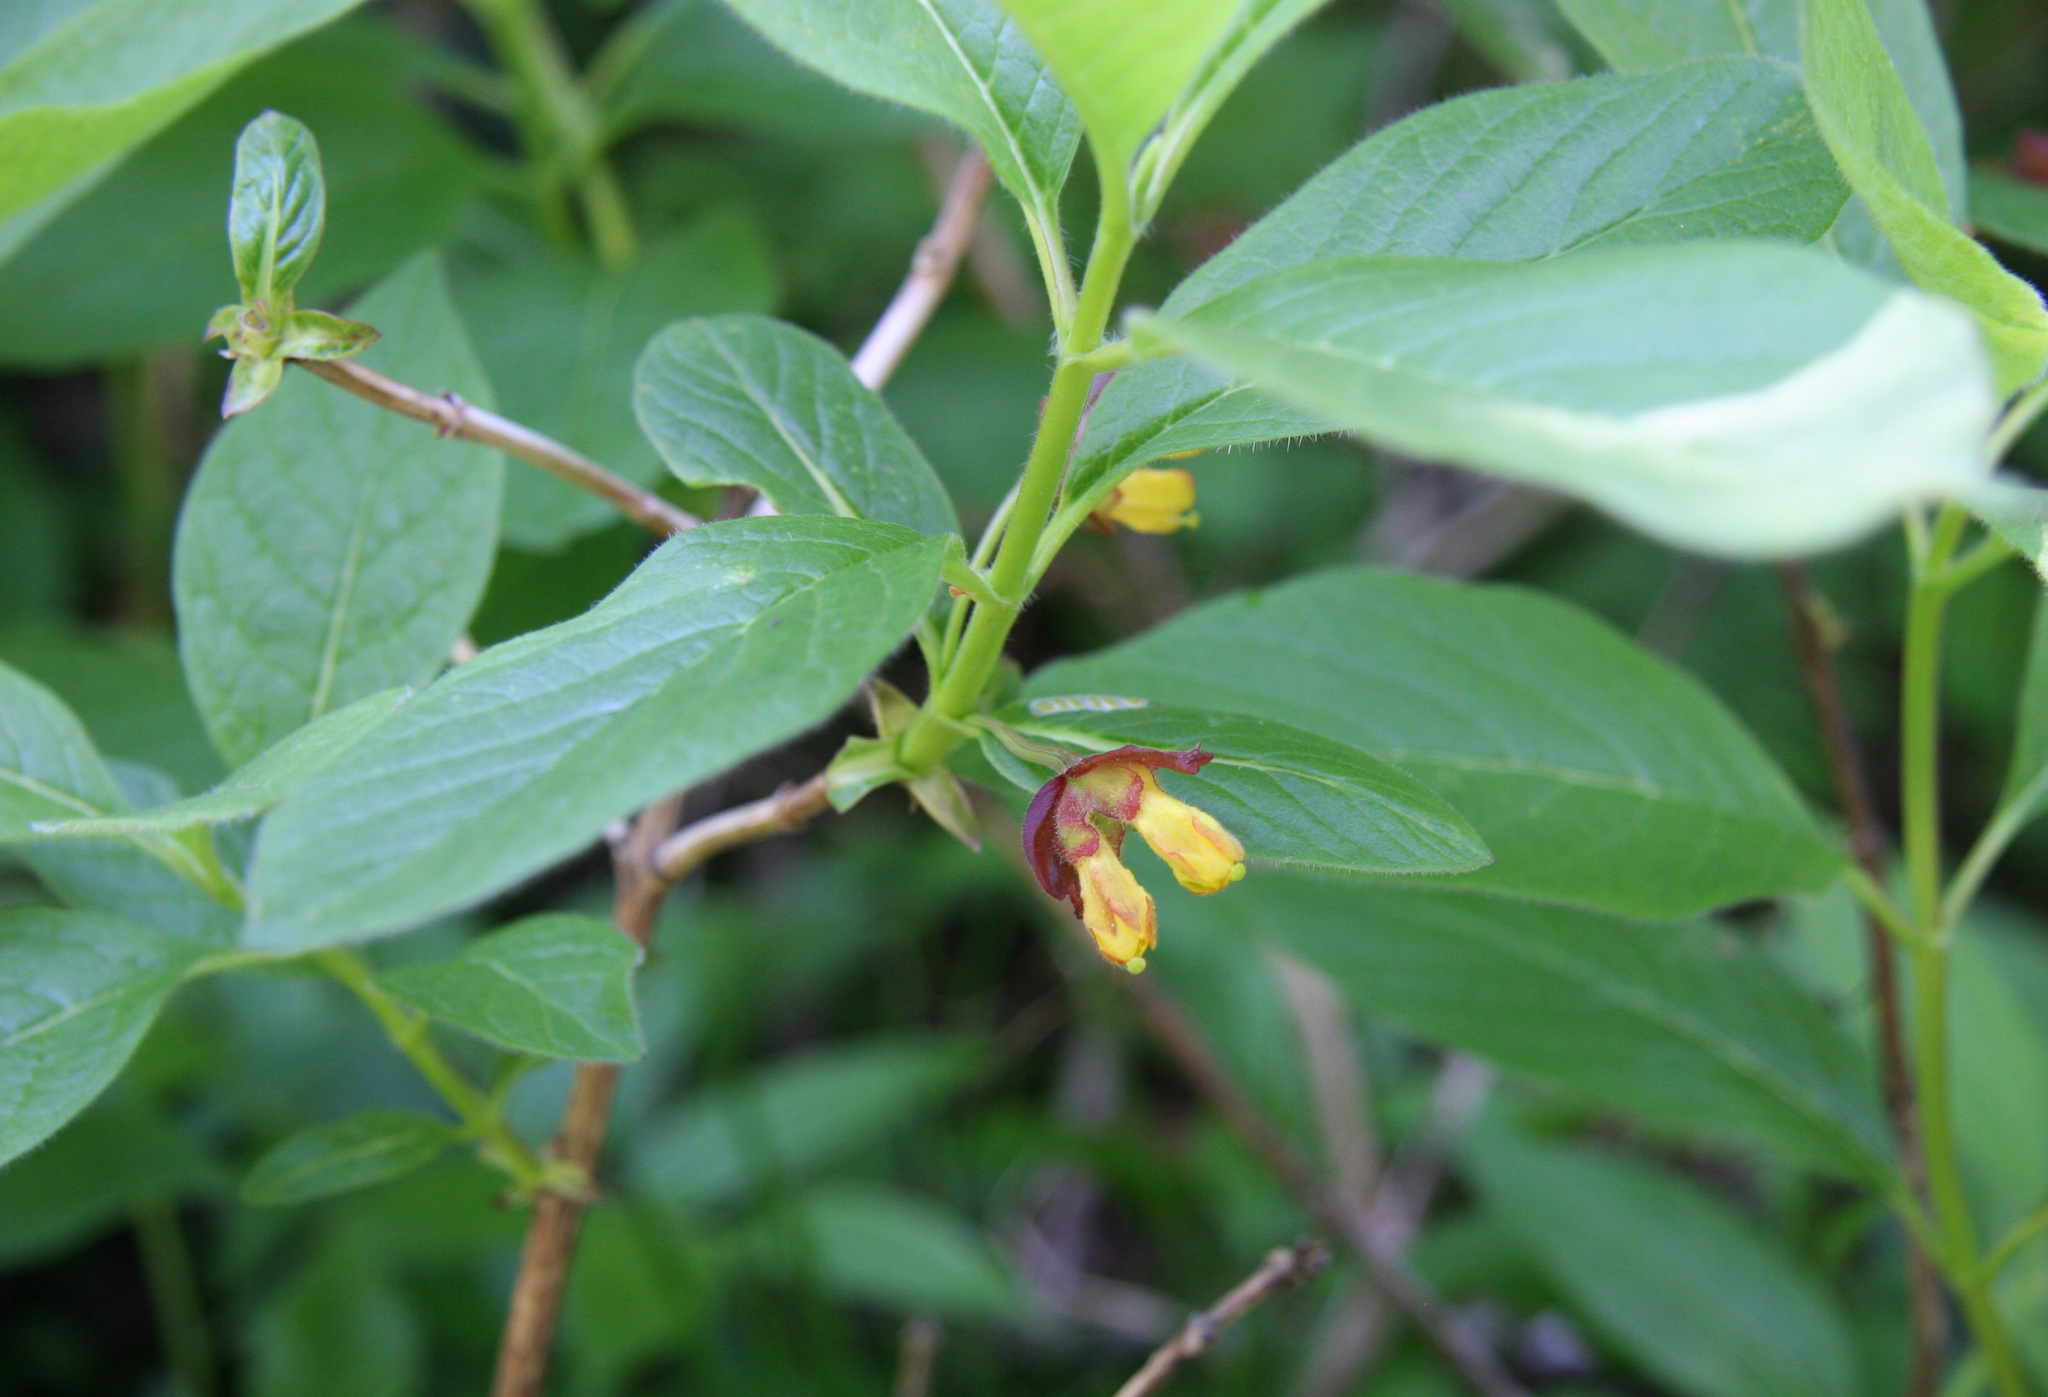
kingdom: Plantae
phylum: Tracheophyta
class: Magnoliopsida
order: Dipsacales
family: Caprifoliaceae
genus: Lonicera
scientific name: Lonicera involucrata
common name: Californian honeysuckle
